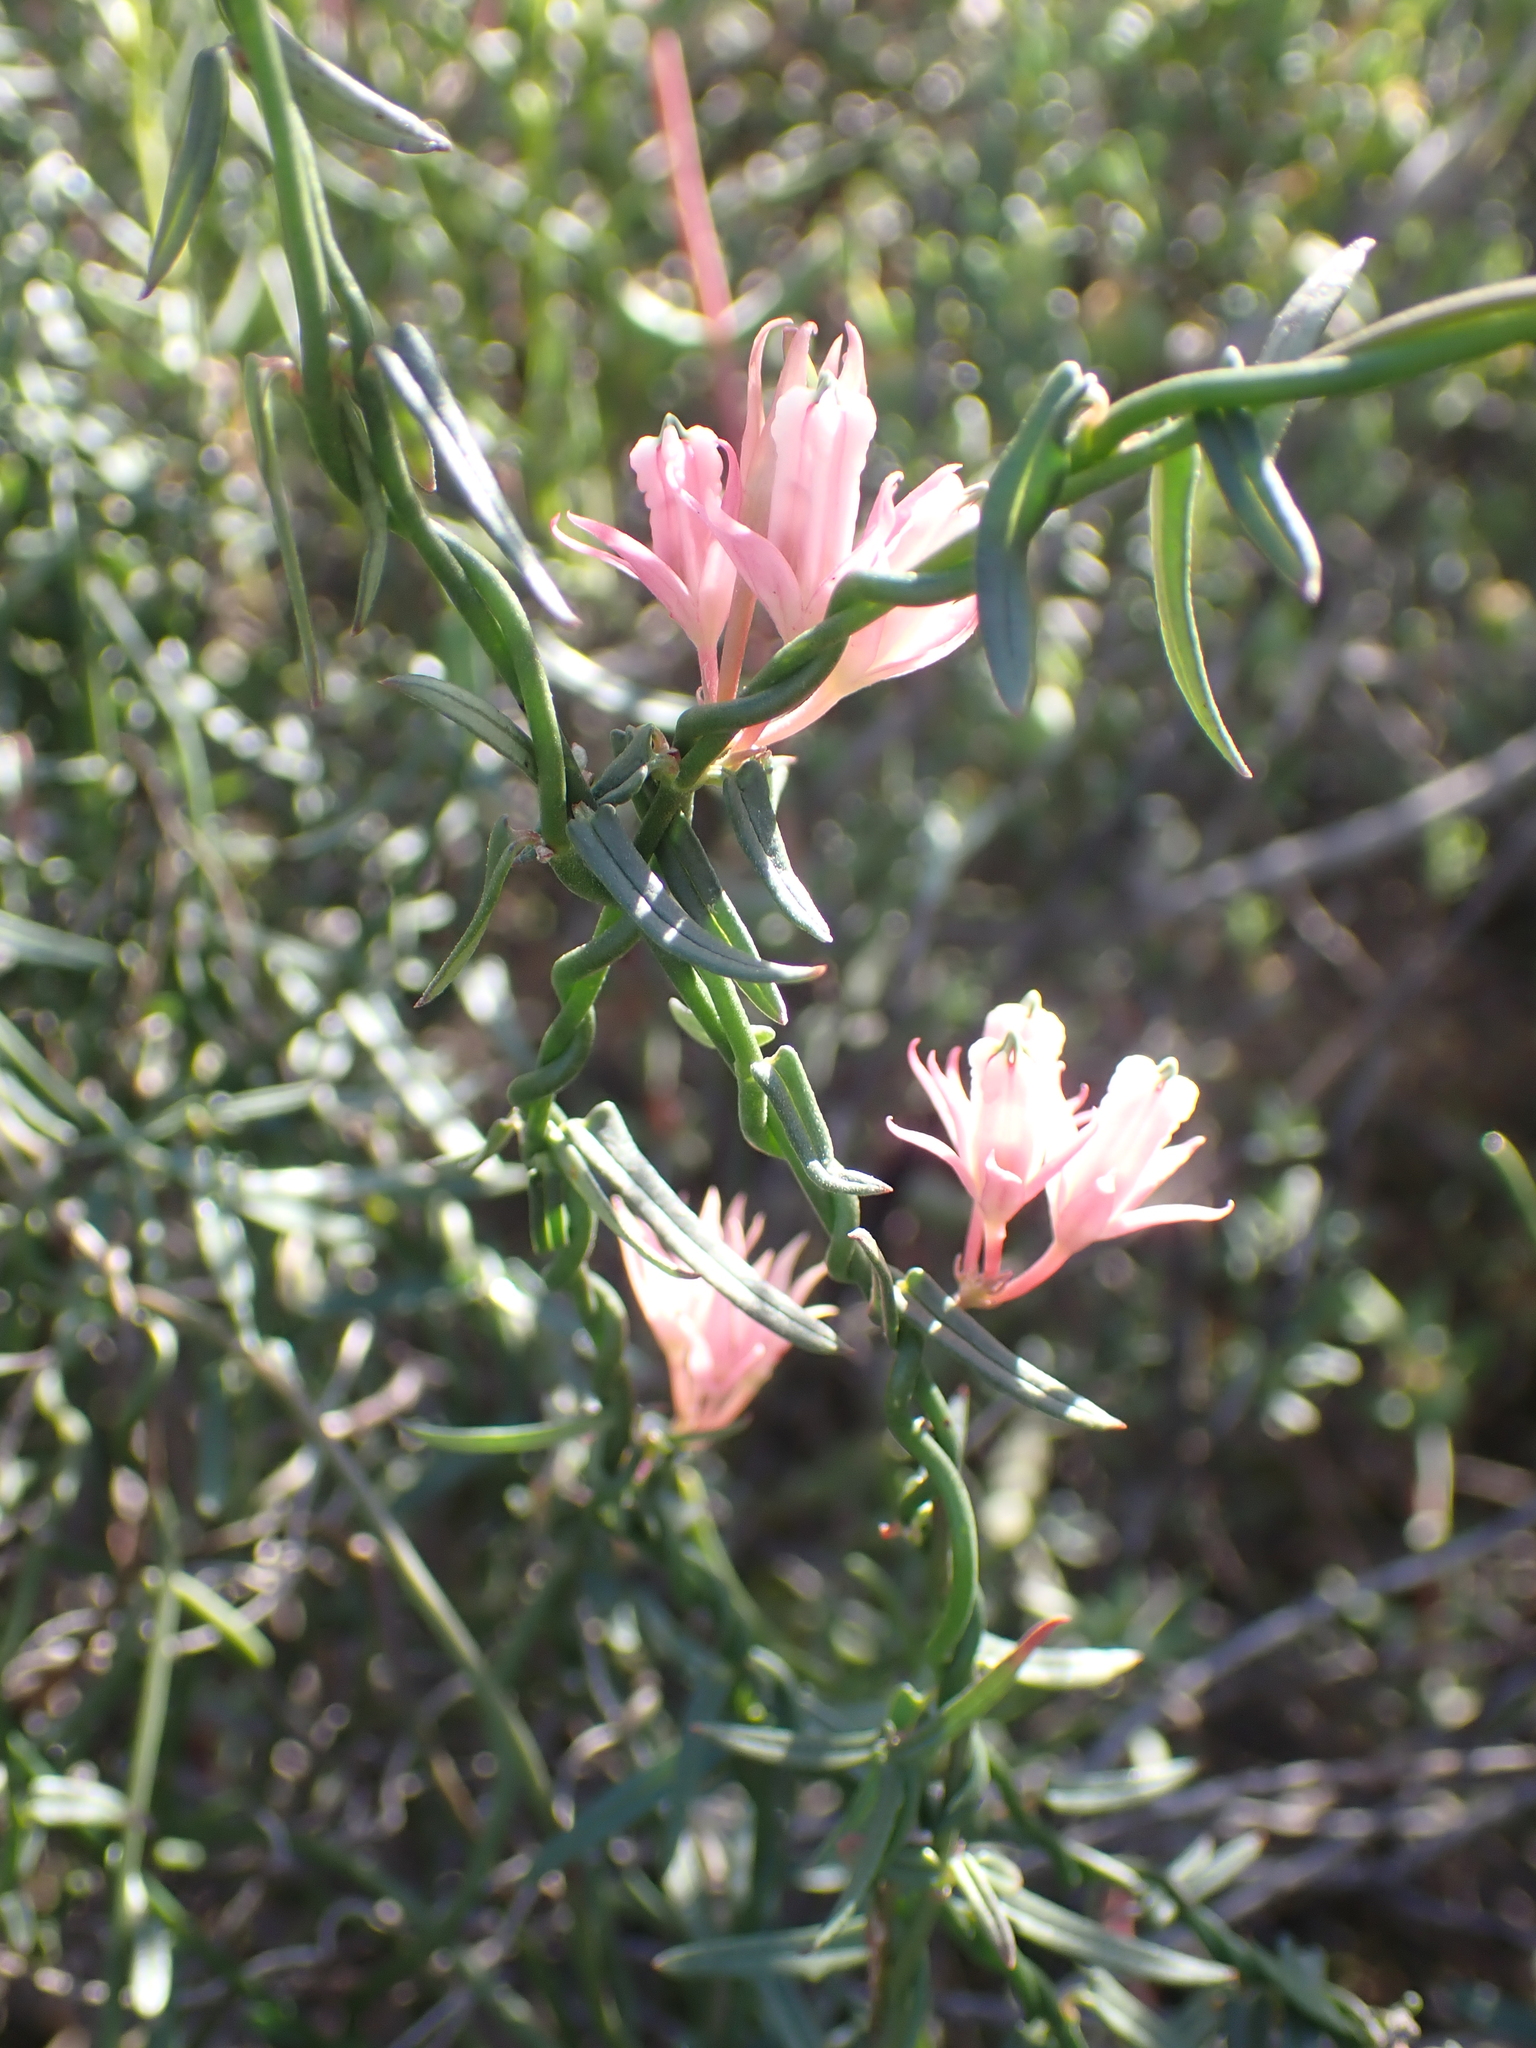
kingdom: Plantae
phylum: Tracheophyta
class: Magnoliopsida
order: Gentianales
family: Apocynaceae
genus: Microloma
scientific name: Microloma sagittatum
